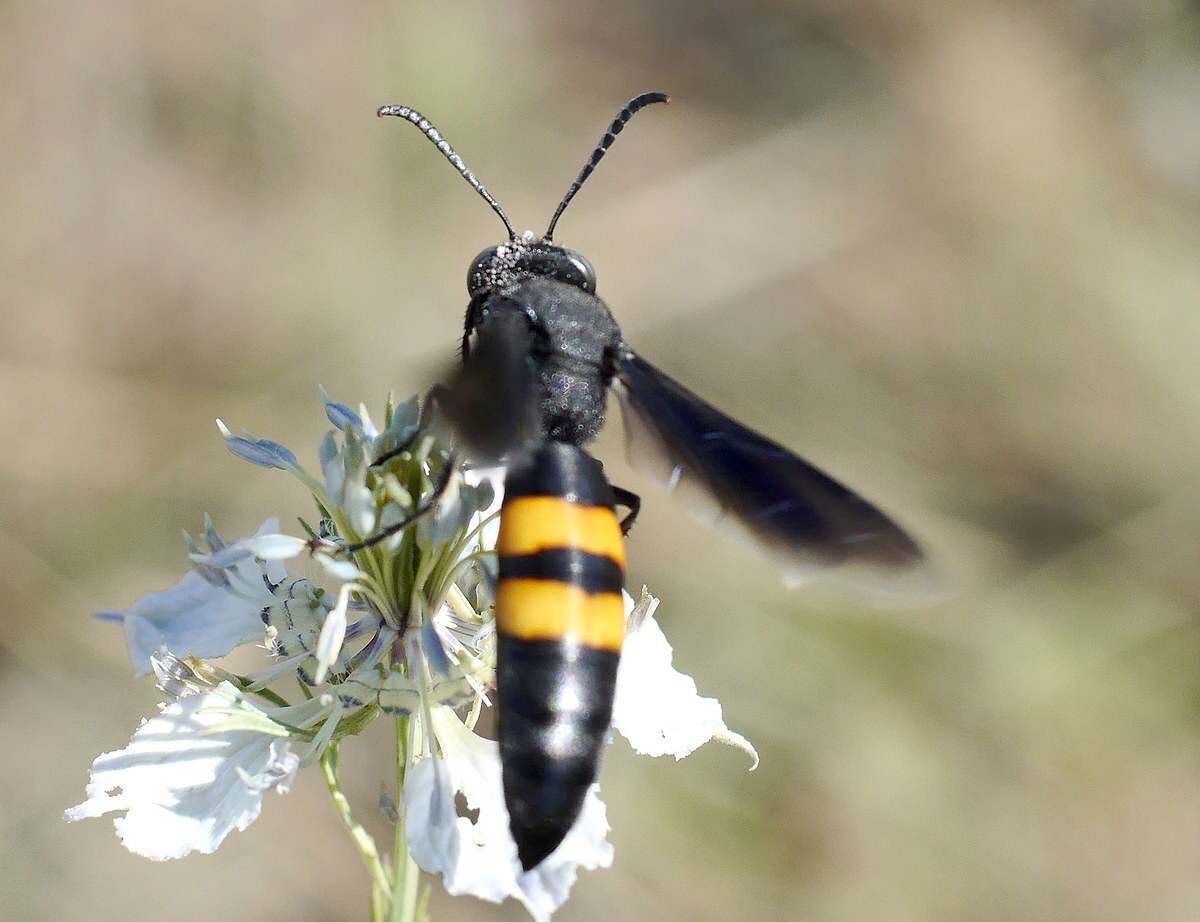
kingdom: Animalia
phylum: Arthropoda
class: Insecta
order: Hymenoptera
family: Crabronidae
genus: Stizoides
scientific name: Stizoides tridentatus
